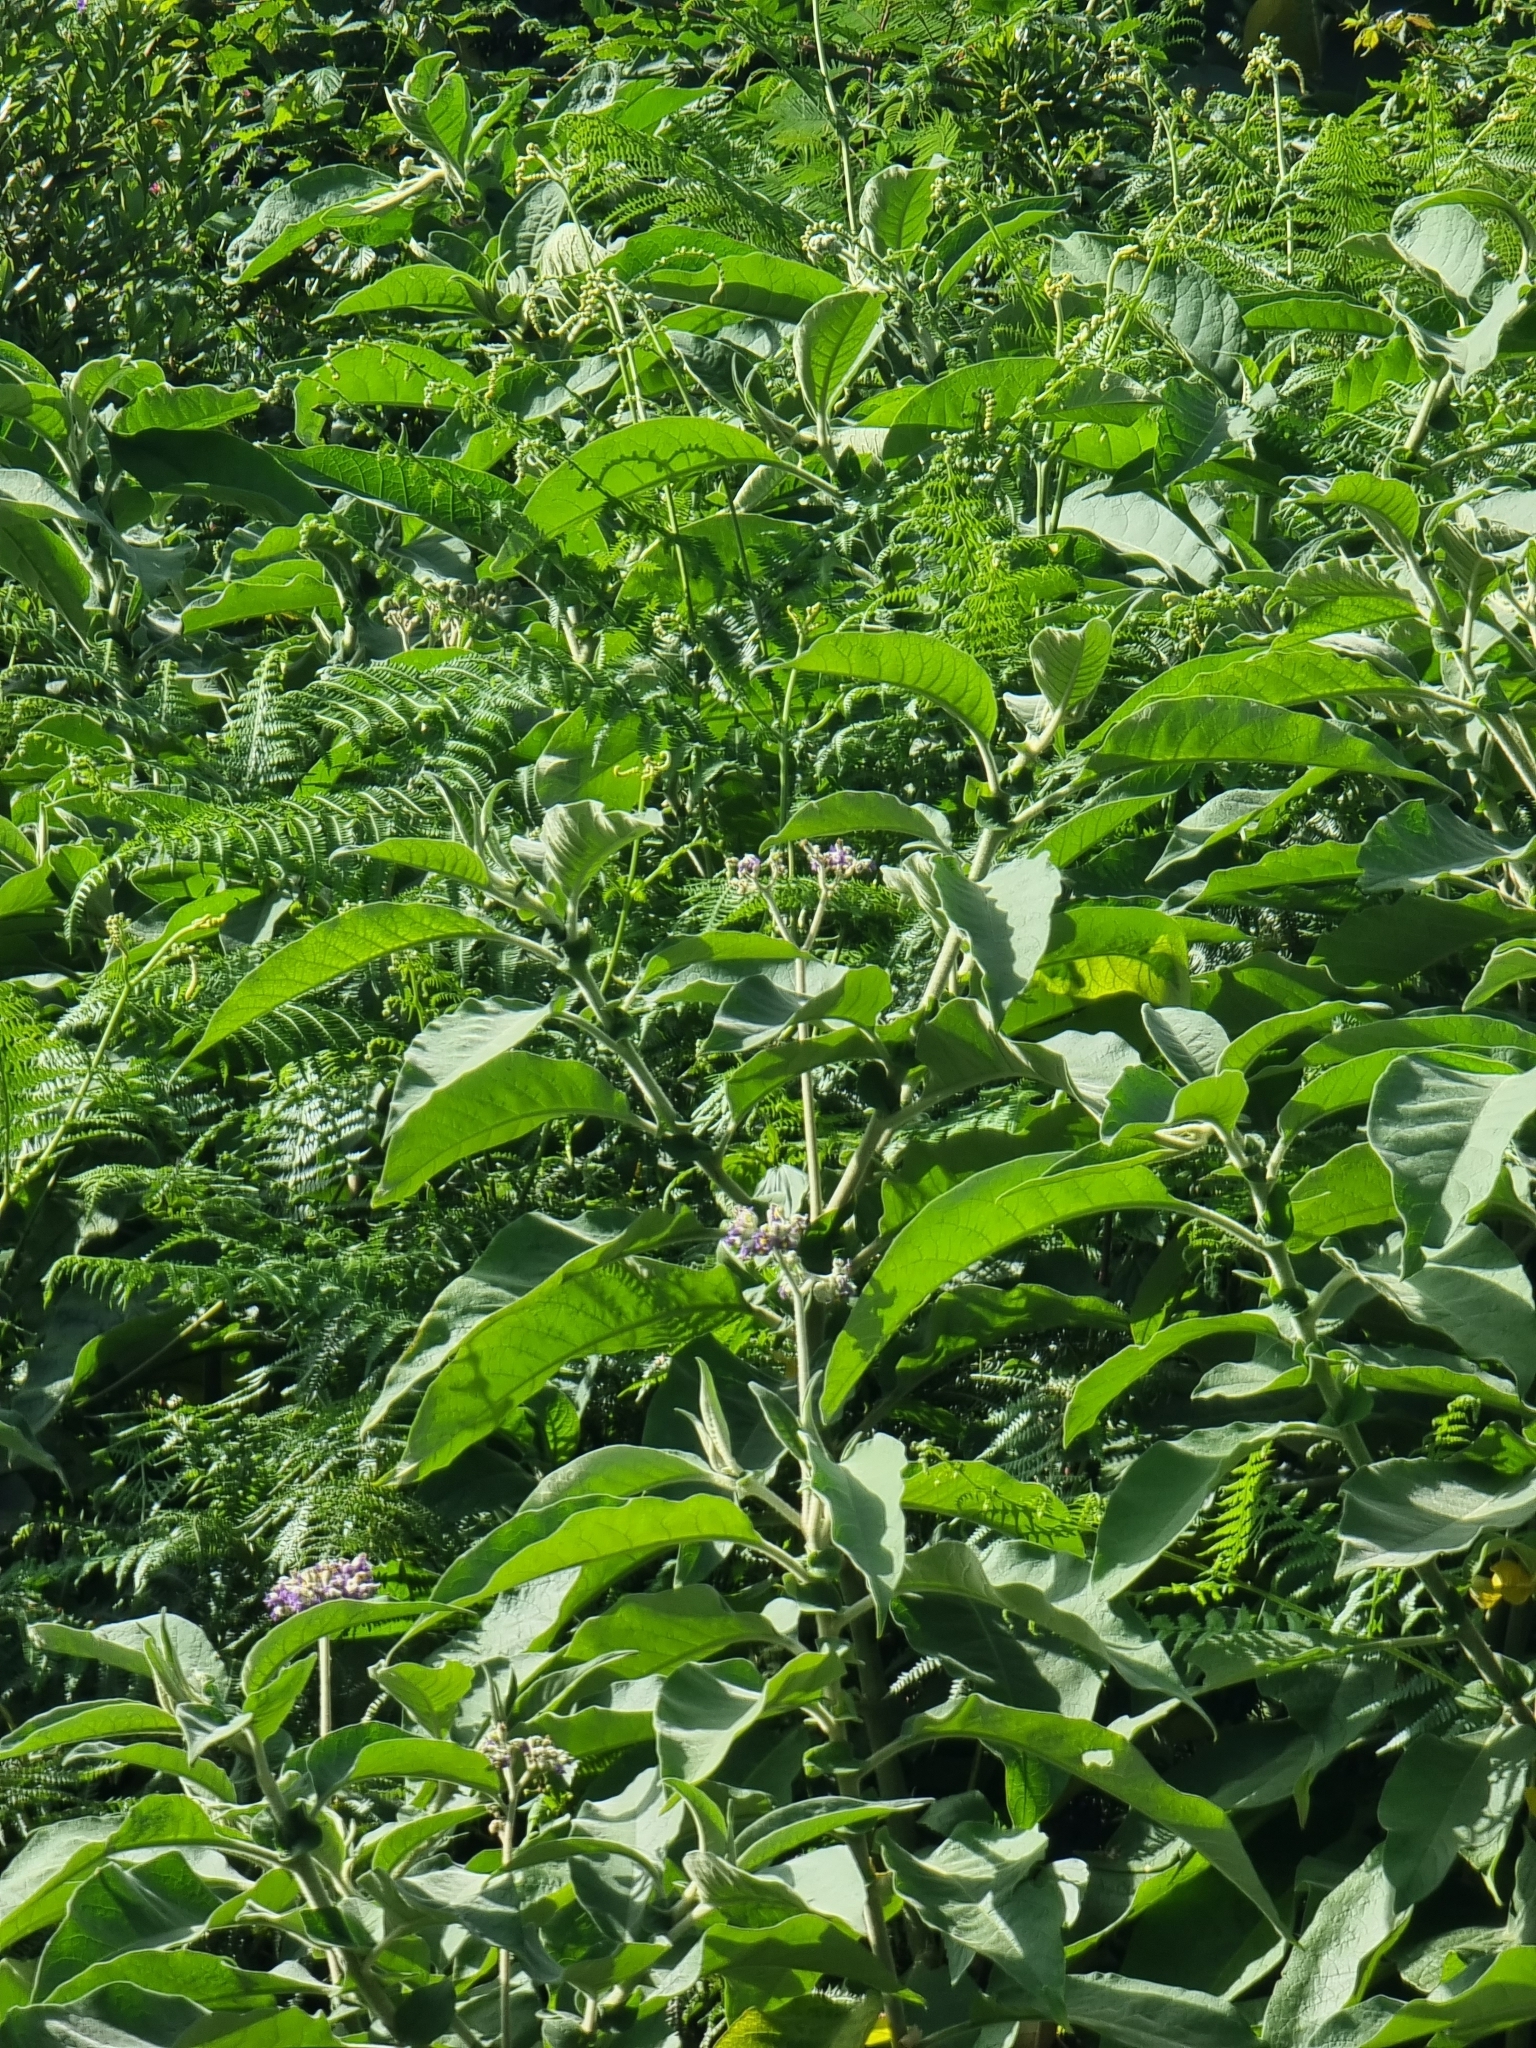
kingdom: Plantae
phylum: Tracheophyta
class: Magnoliopsida
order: Solanales
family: Solanaceae
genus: Solanum
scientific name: Solanum mauritianum
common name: Earleaf nightshade
